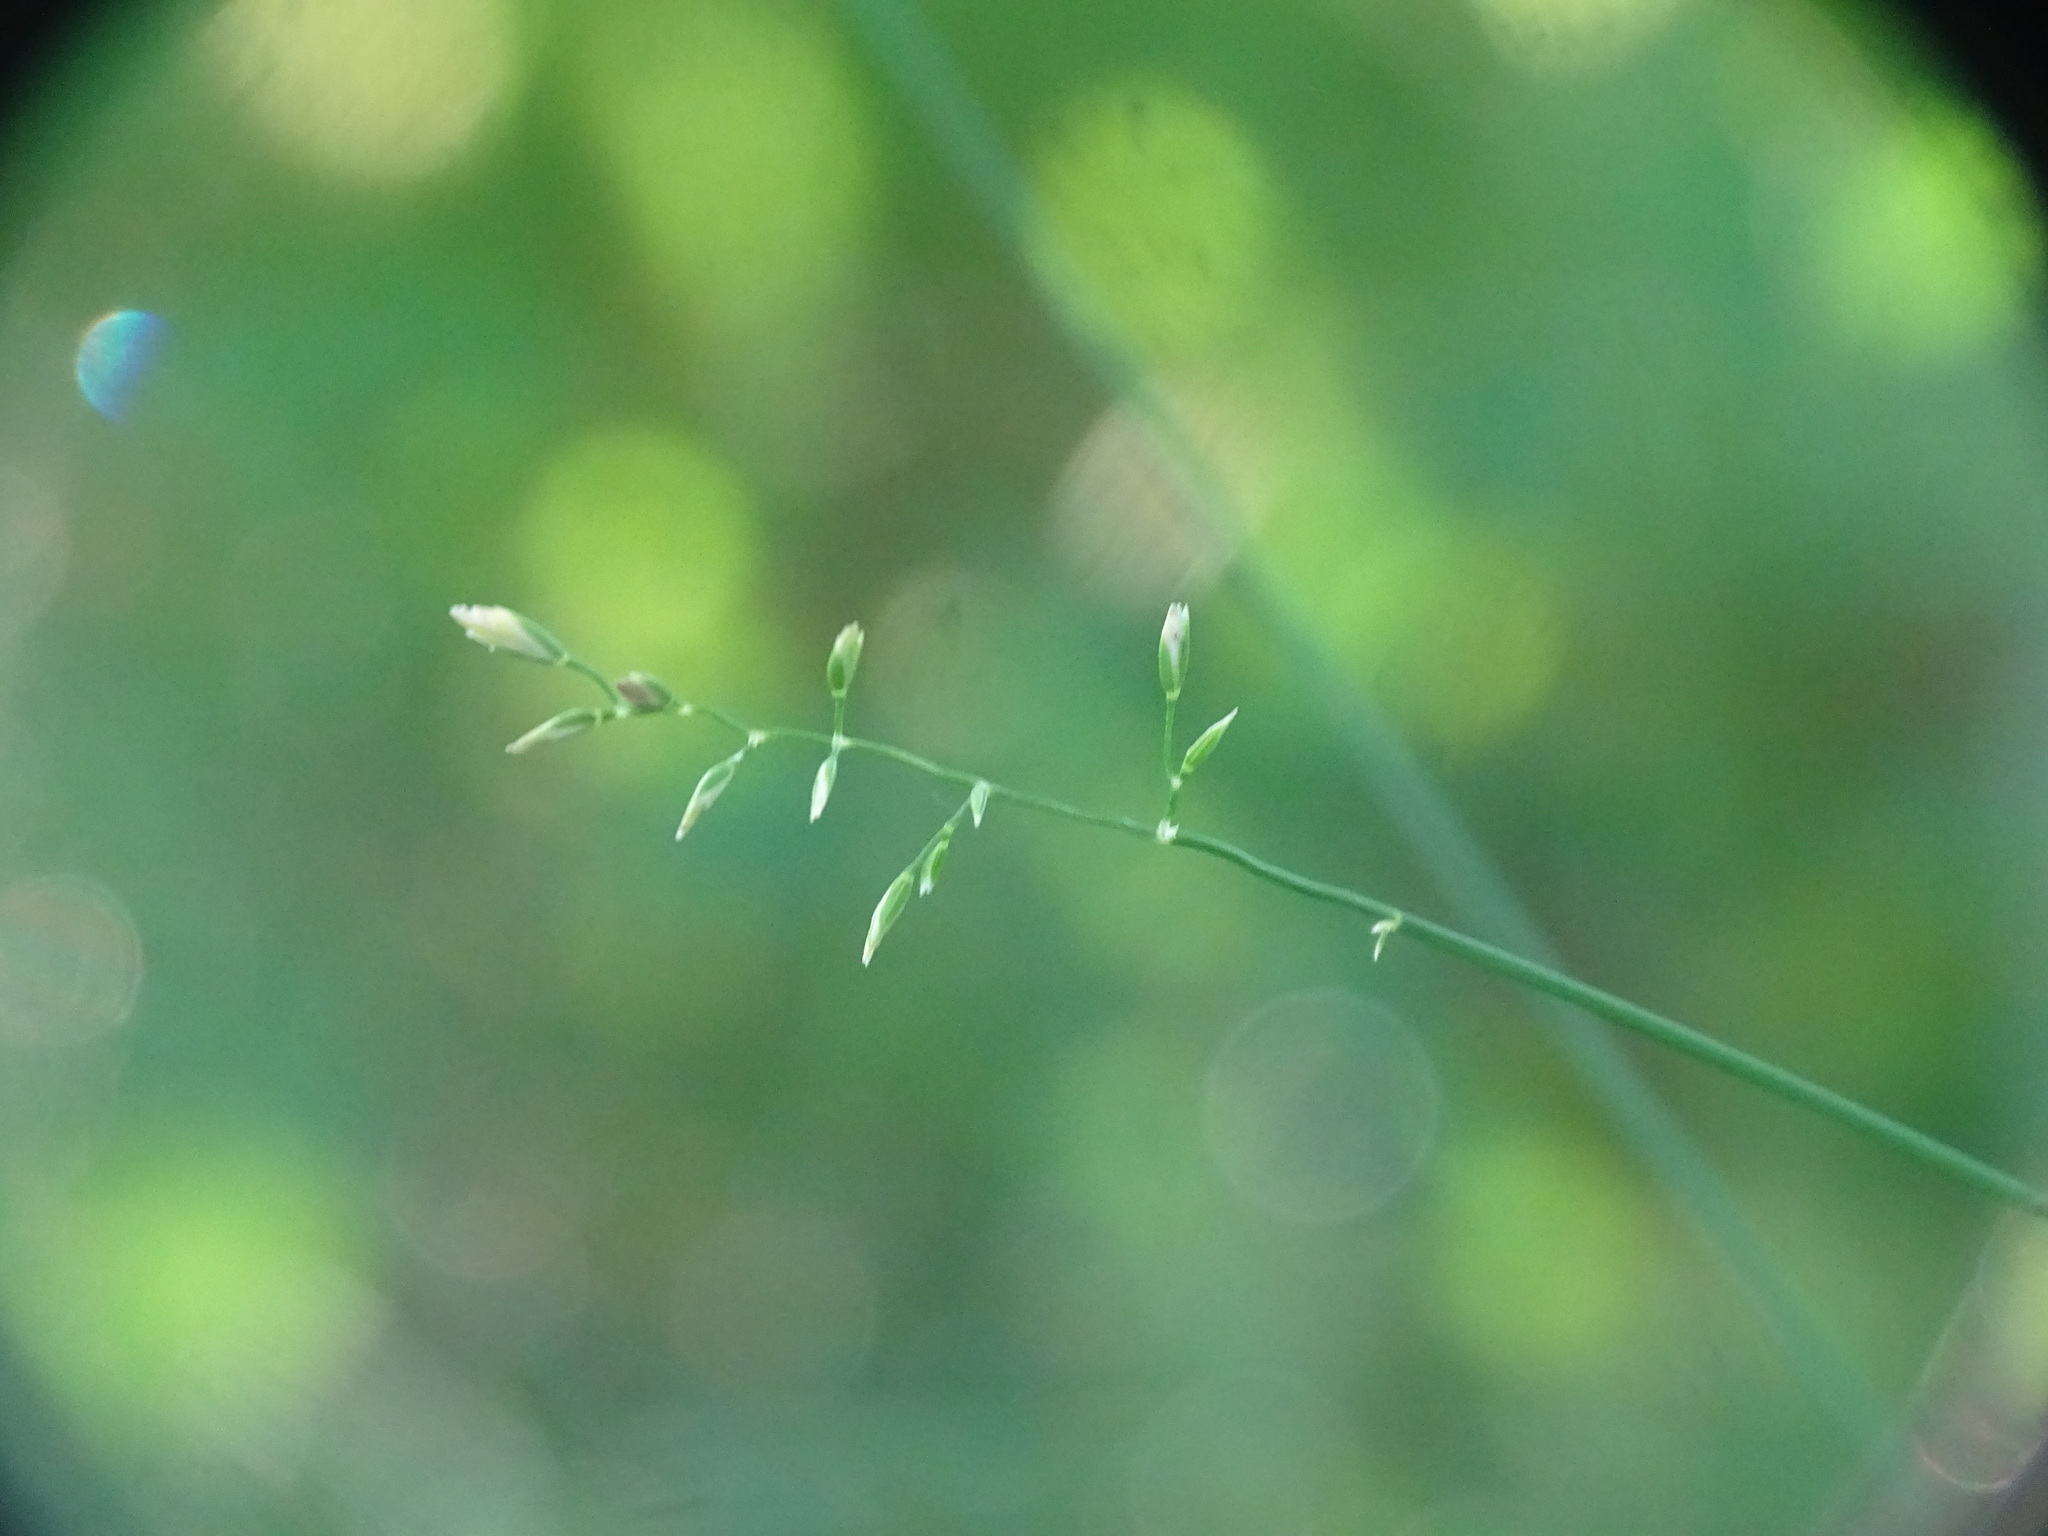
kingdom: Plantae
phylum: Tracheophyta
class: Liliopsida
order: Poales
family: Poaceae
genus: Poa
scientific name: Poa compressa
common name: Canada bluegrass
